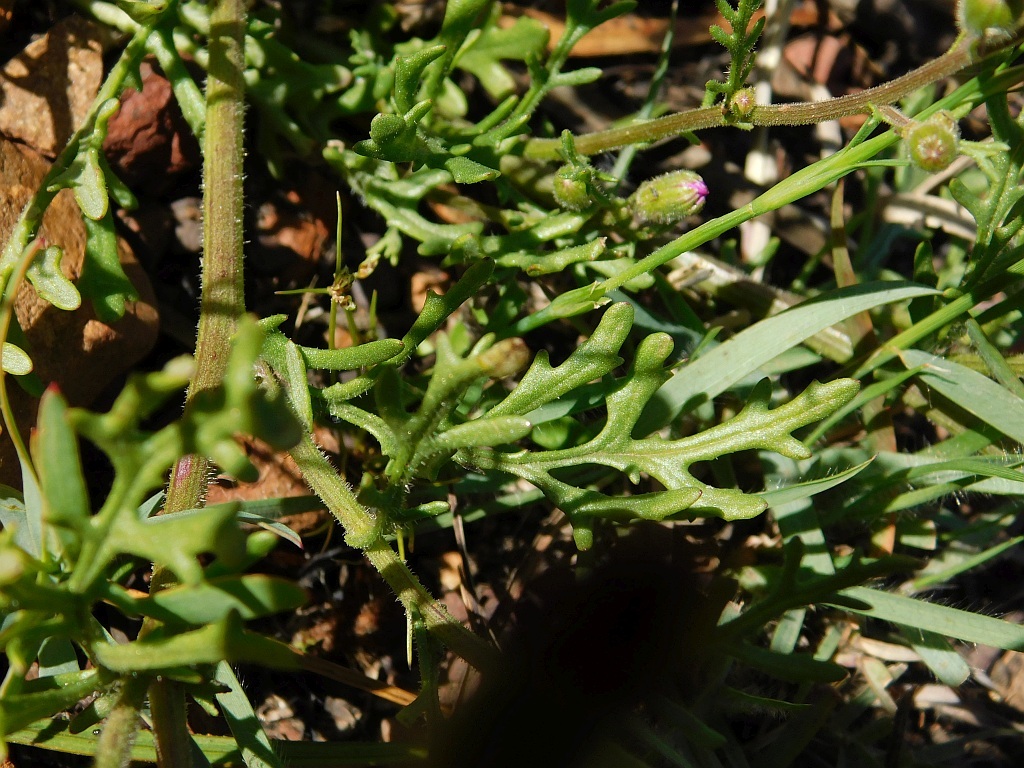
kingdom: Plantae
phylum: Tracheophyta
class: Magnoliopsida
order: Asterales
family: Asteraceae
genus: Senecio
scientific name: Senecio arenarius
